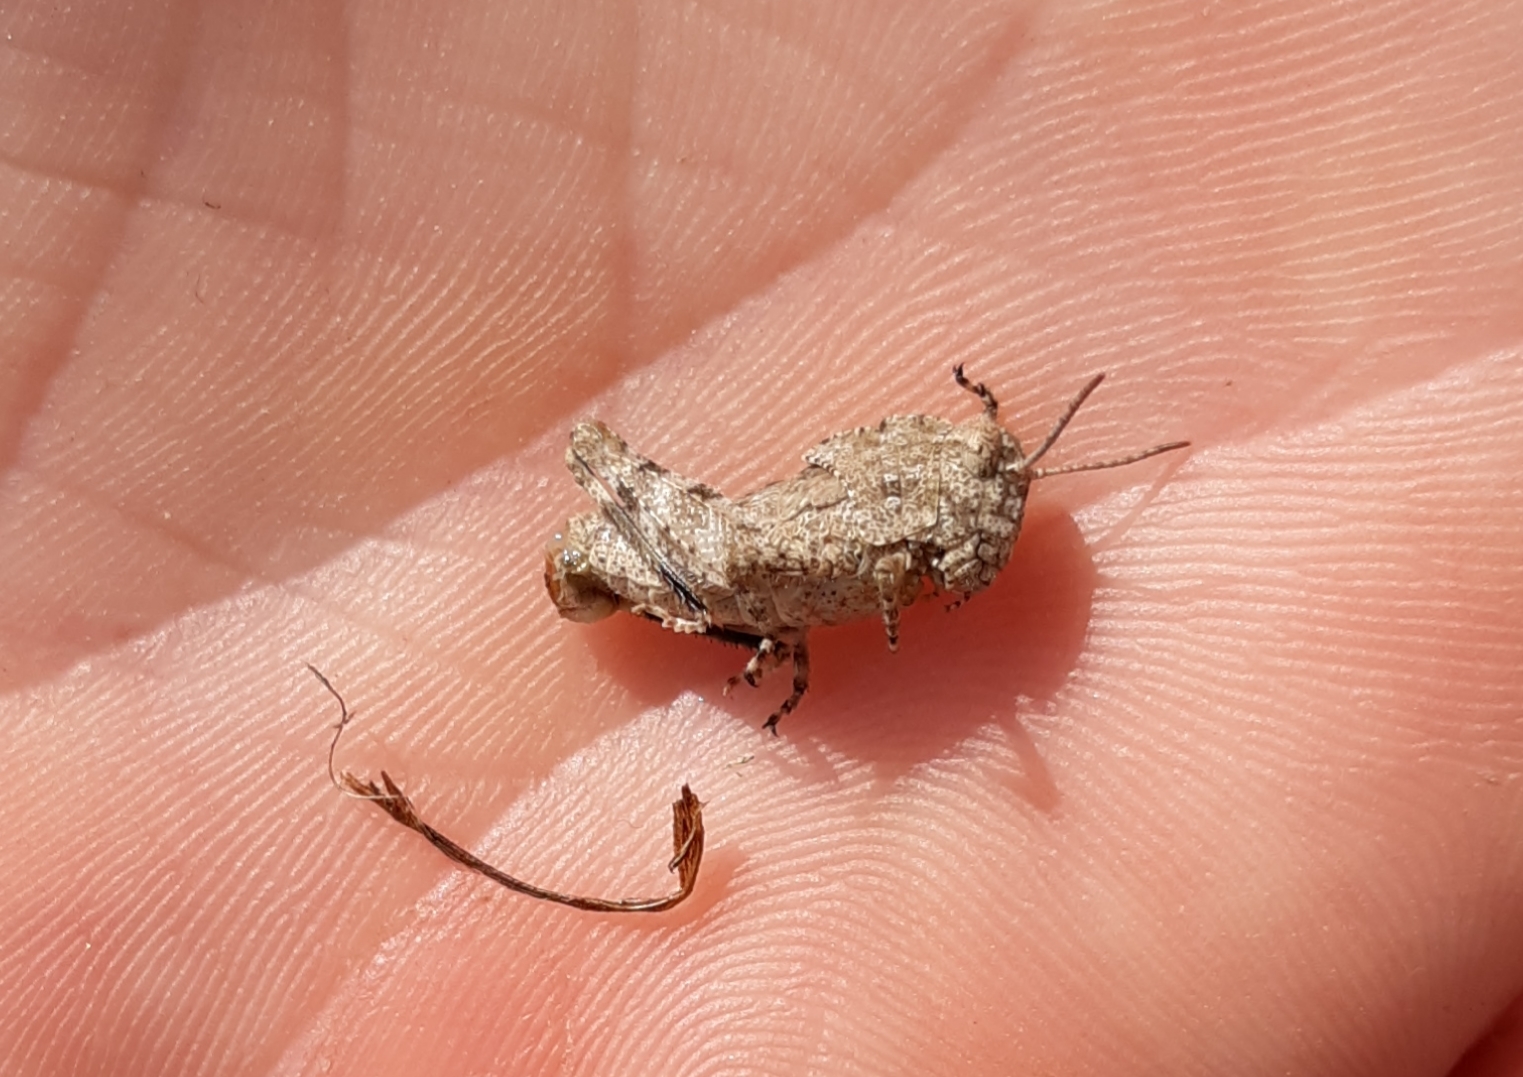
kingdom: Animalia
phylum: Arthropoda
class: Insecta
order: Orthoptera
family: Acrididae
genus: Dissosteira
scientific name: Dissosteira carolina
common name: Carolina grasshopper
